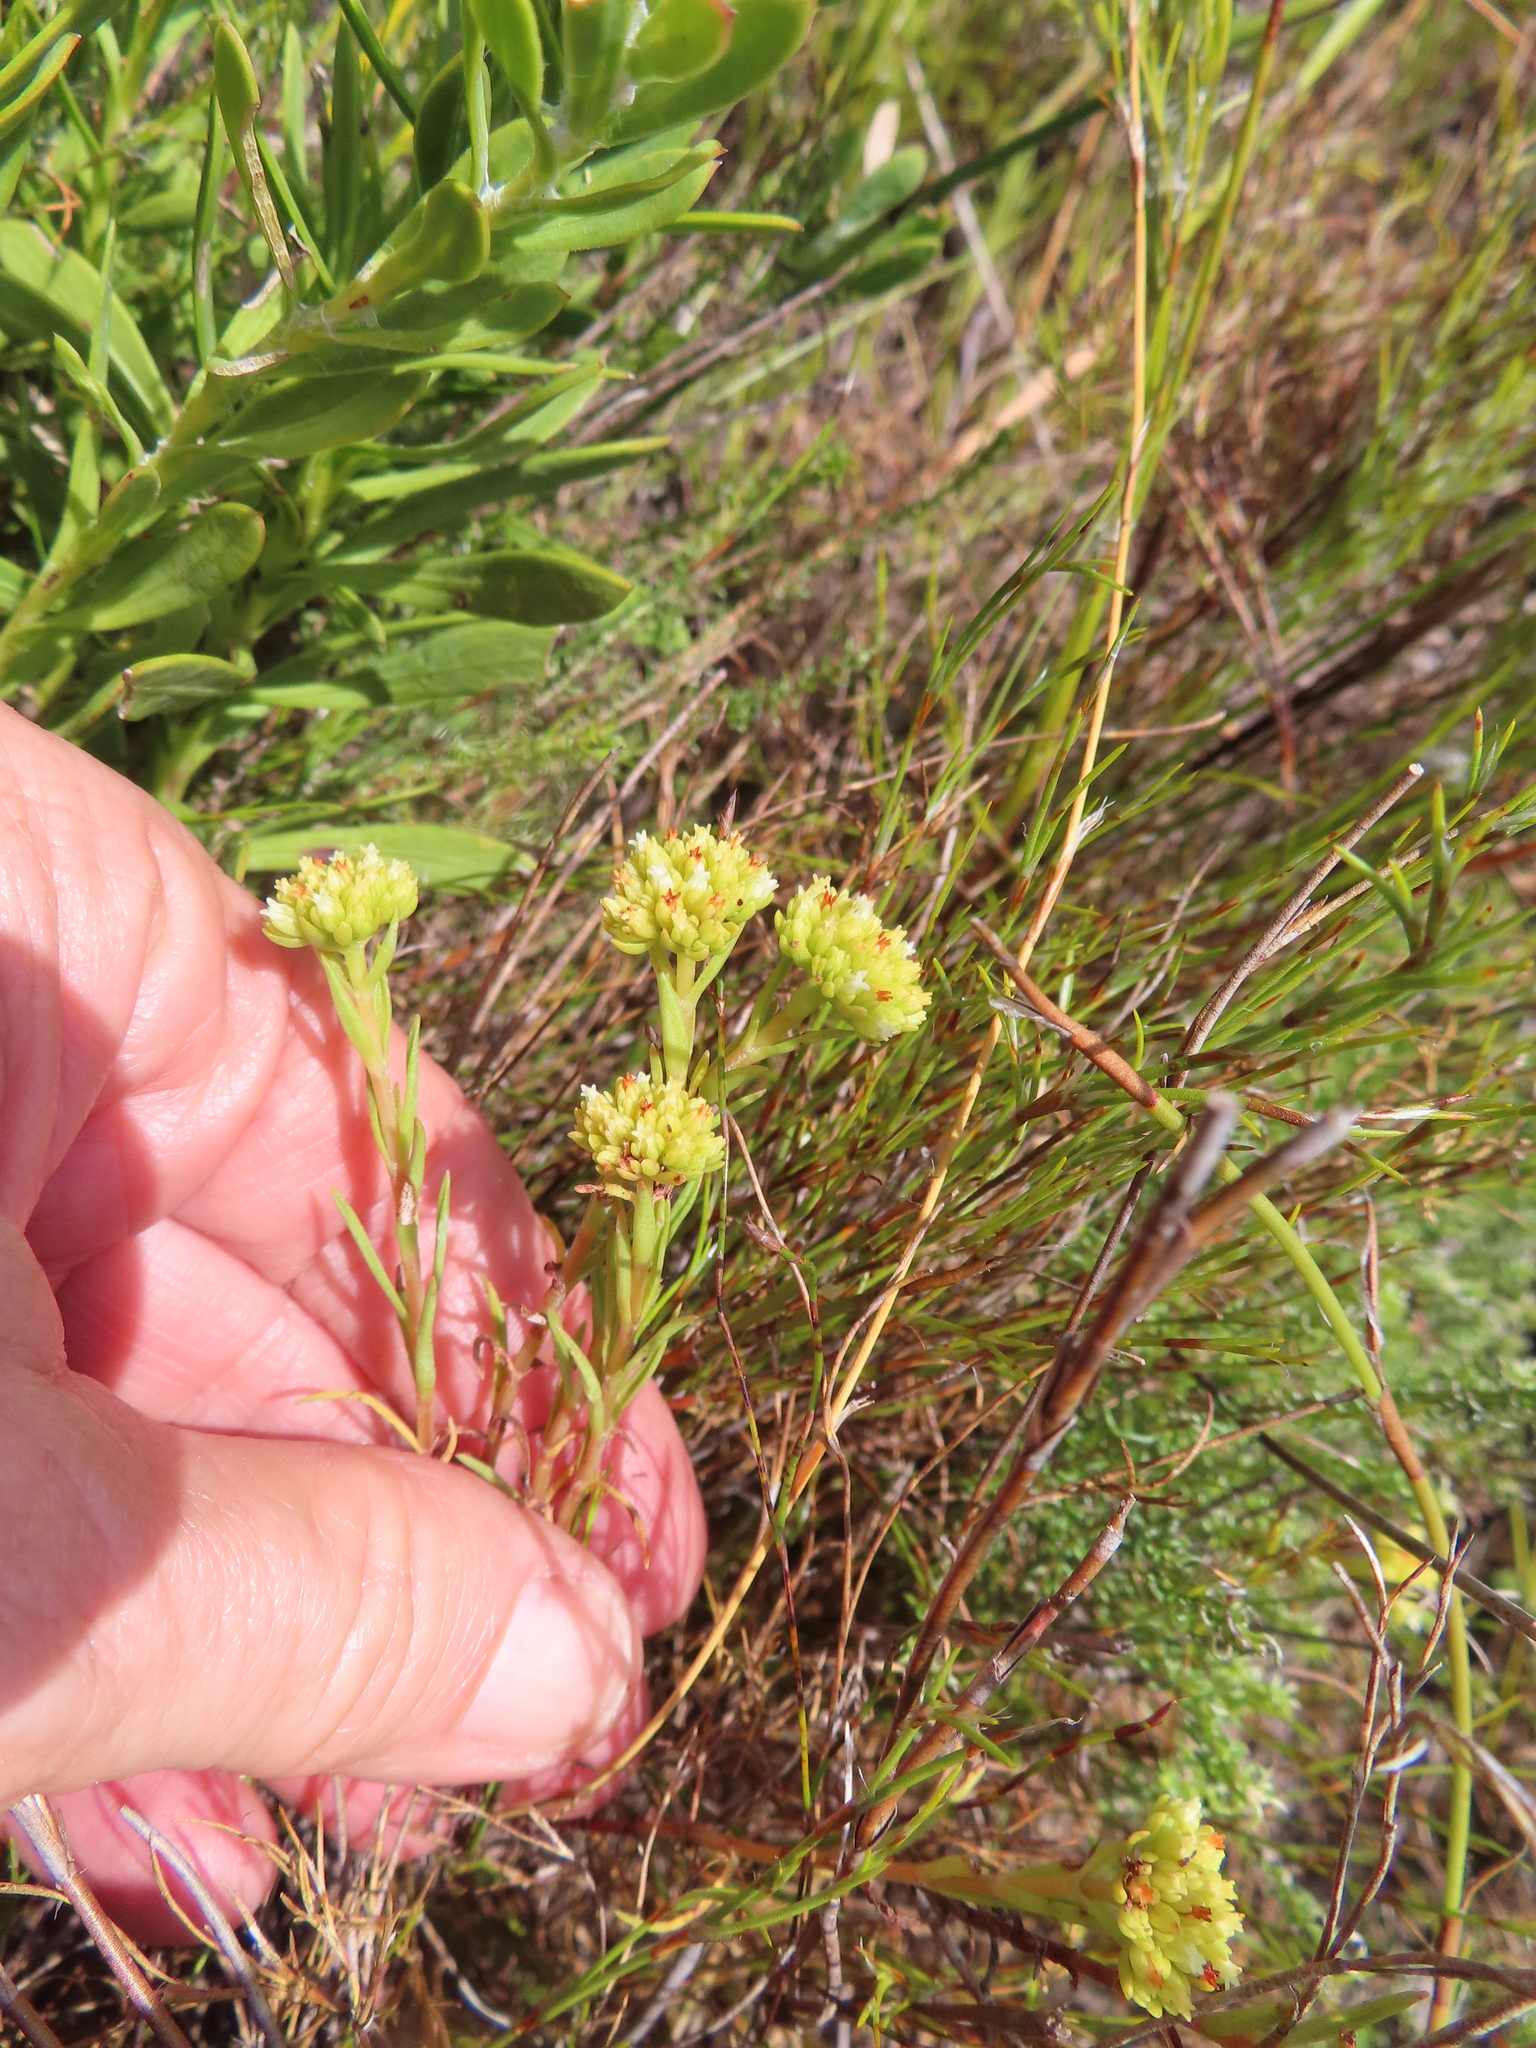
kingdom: Plantae
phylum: Tracheophyta
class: Magnoliopsida
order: Saxifragales
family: Crassulaceae
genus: Crassula
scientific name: Crassula subulata
